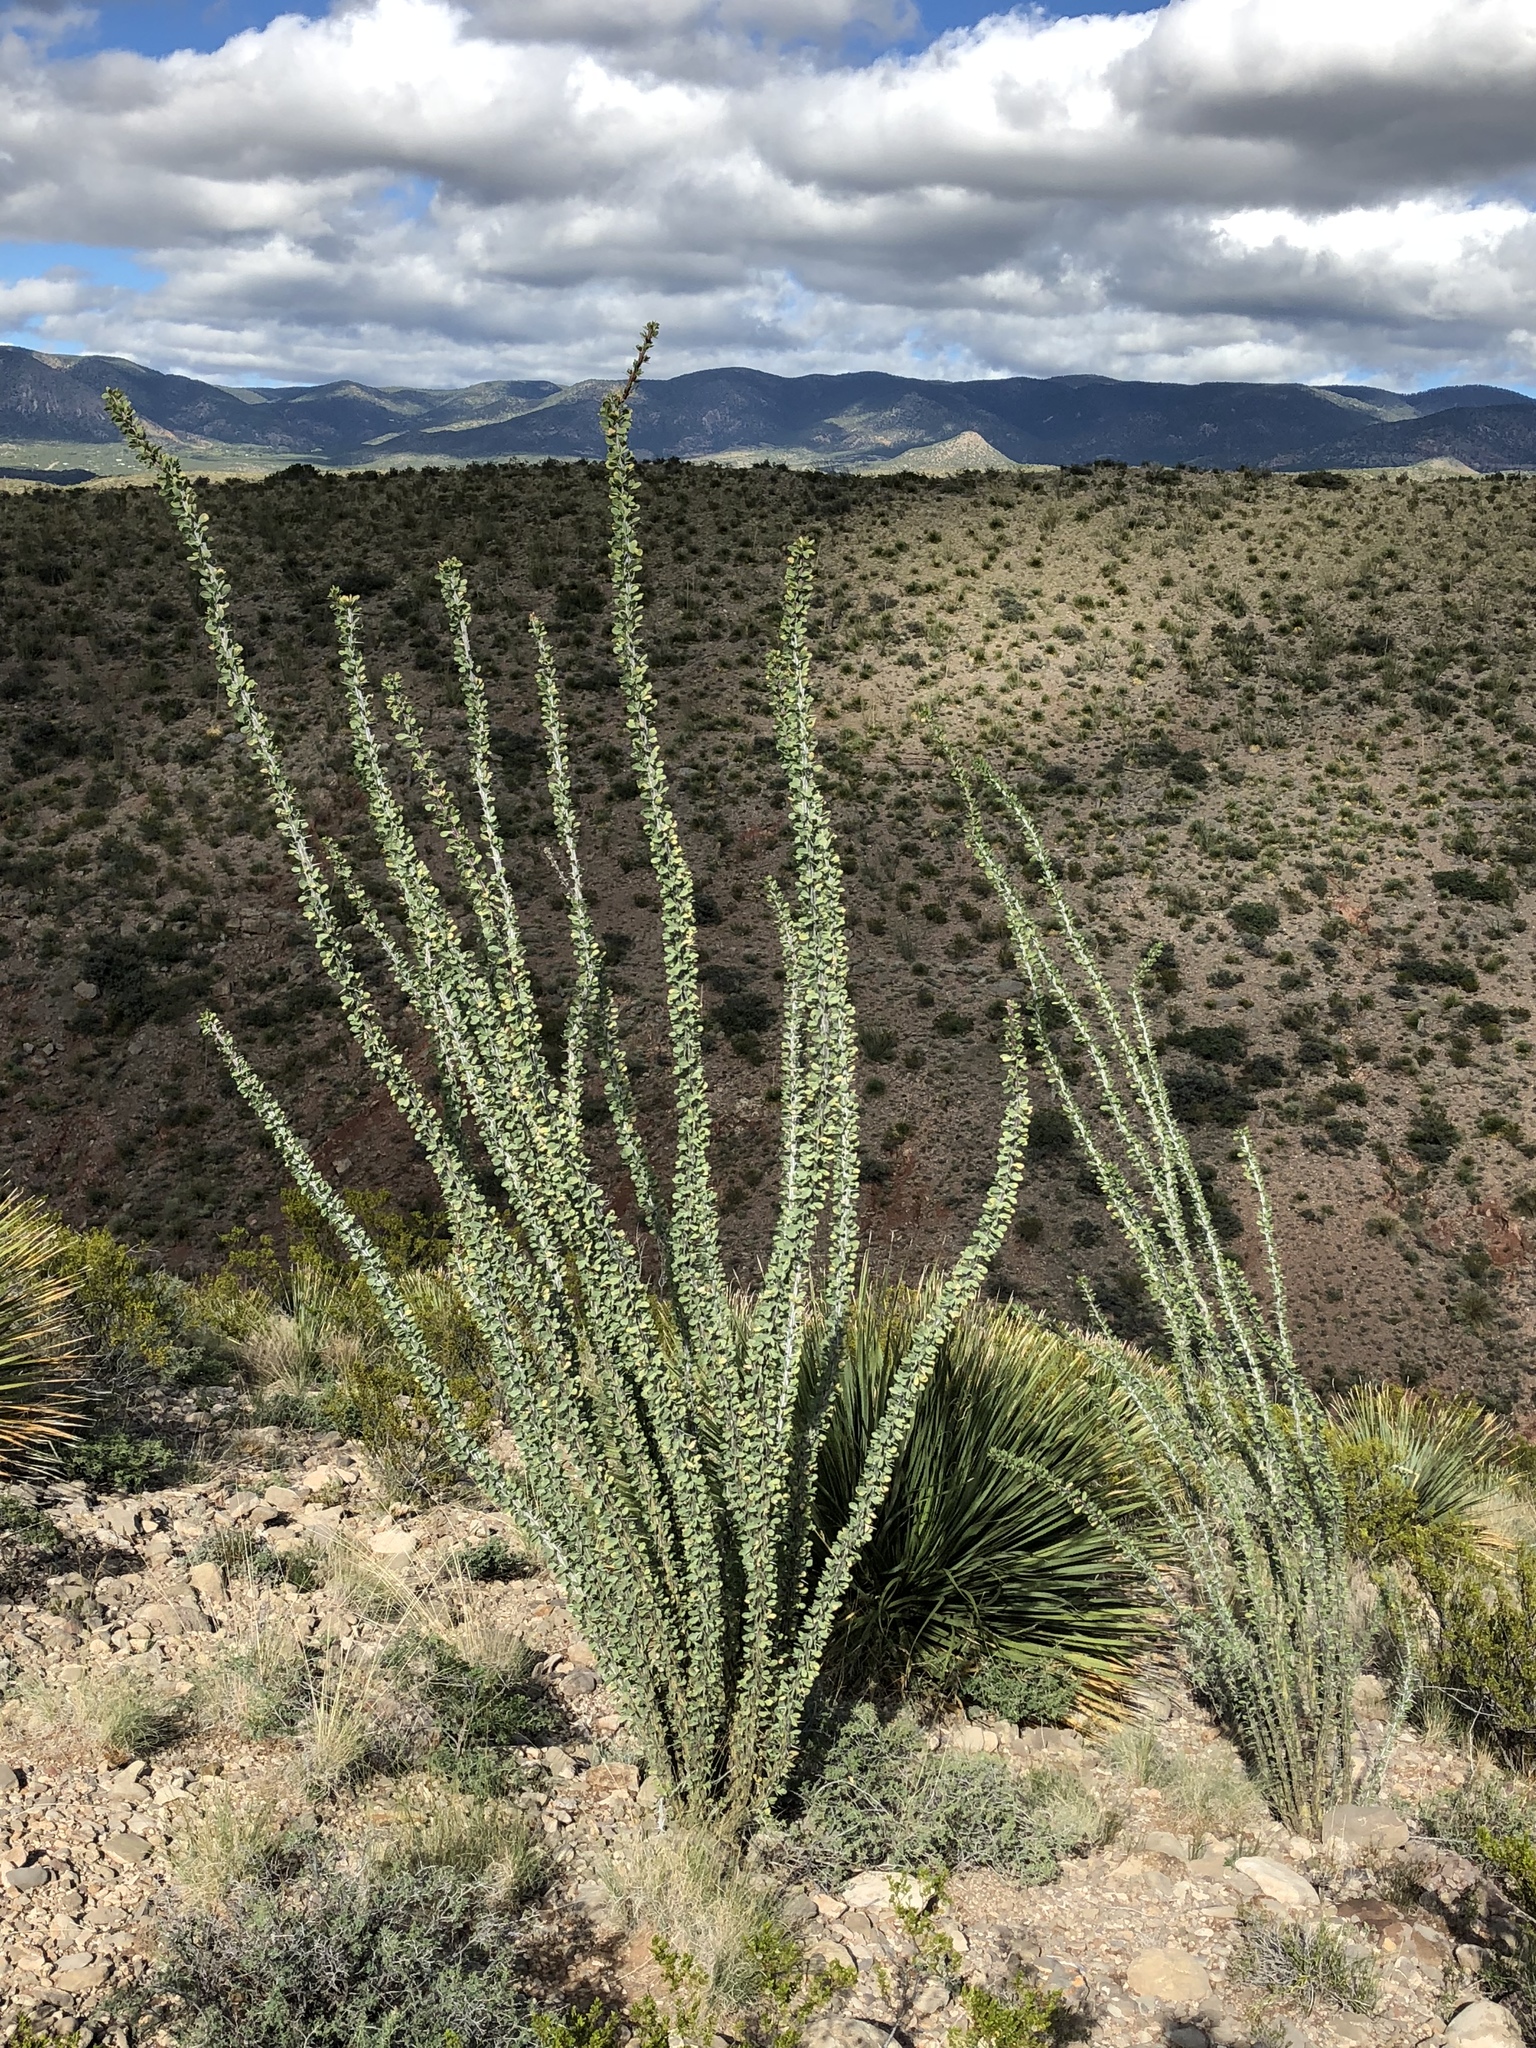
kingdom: Plantae
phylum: Tracheophyta
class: Magnoliopsida
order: Ericales
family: Fouquieriaceae
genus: Fouquieria
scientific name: Fouquieria splendens
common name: Vine-cactus
